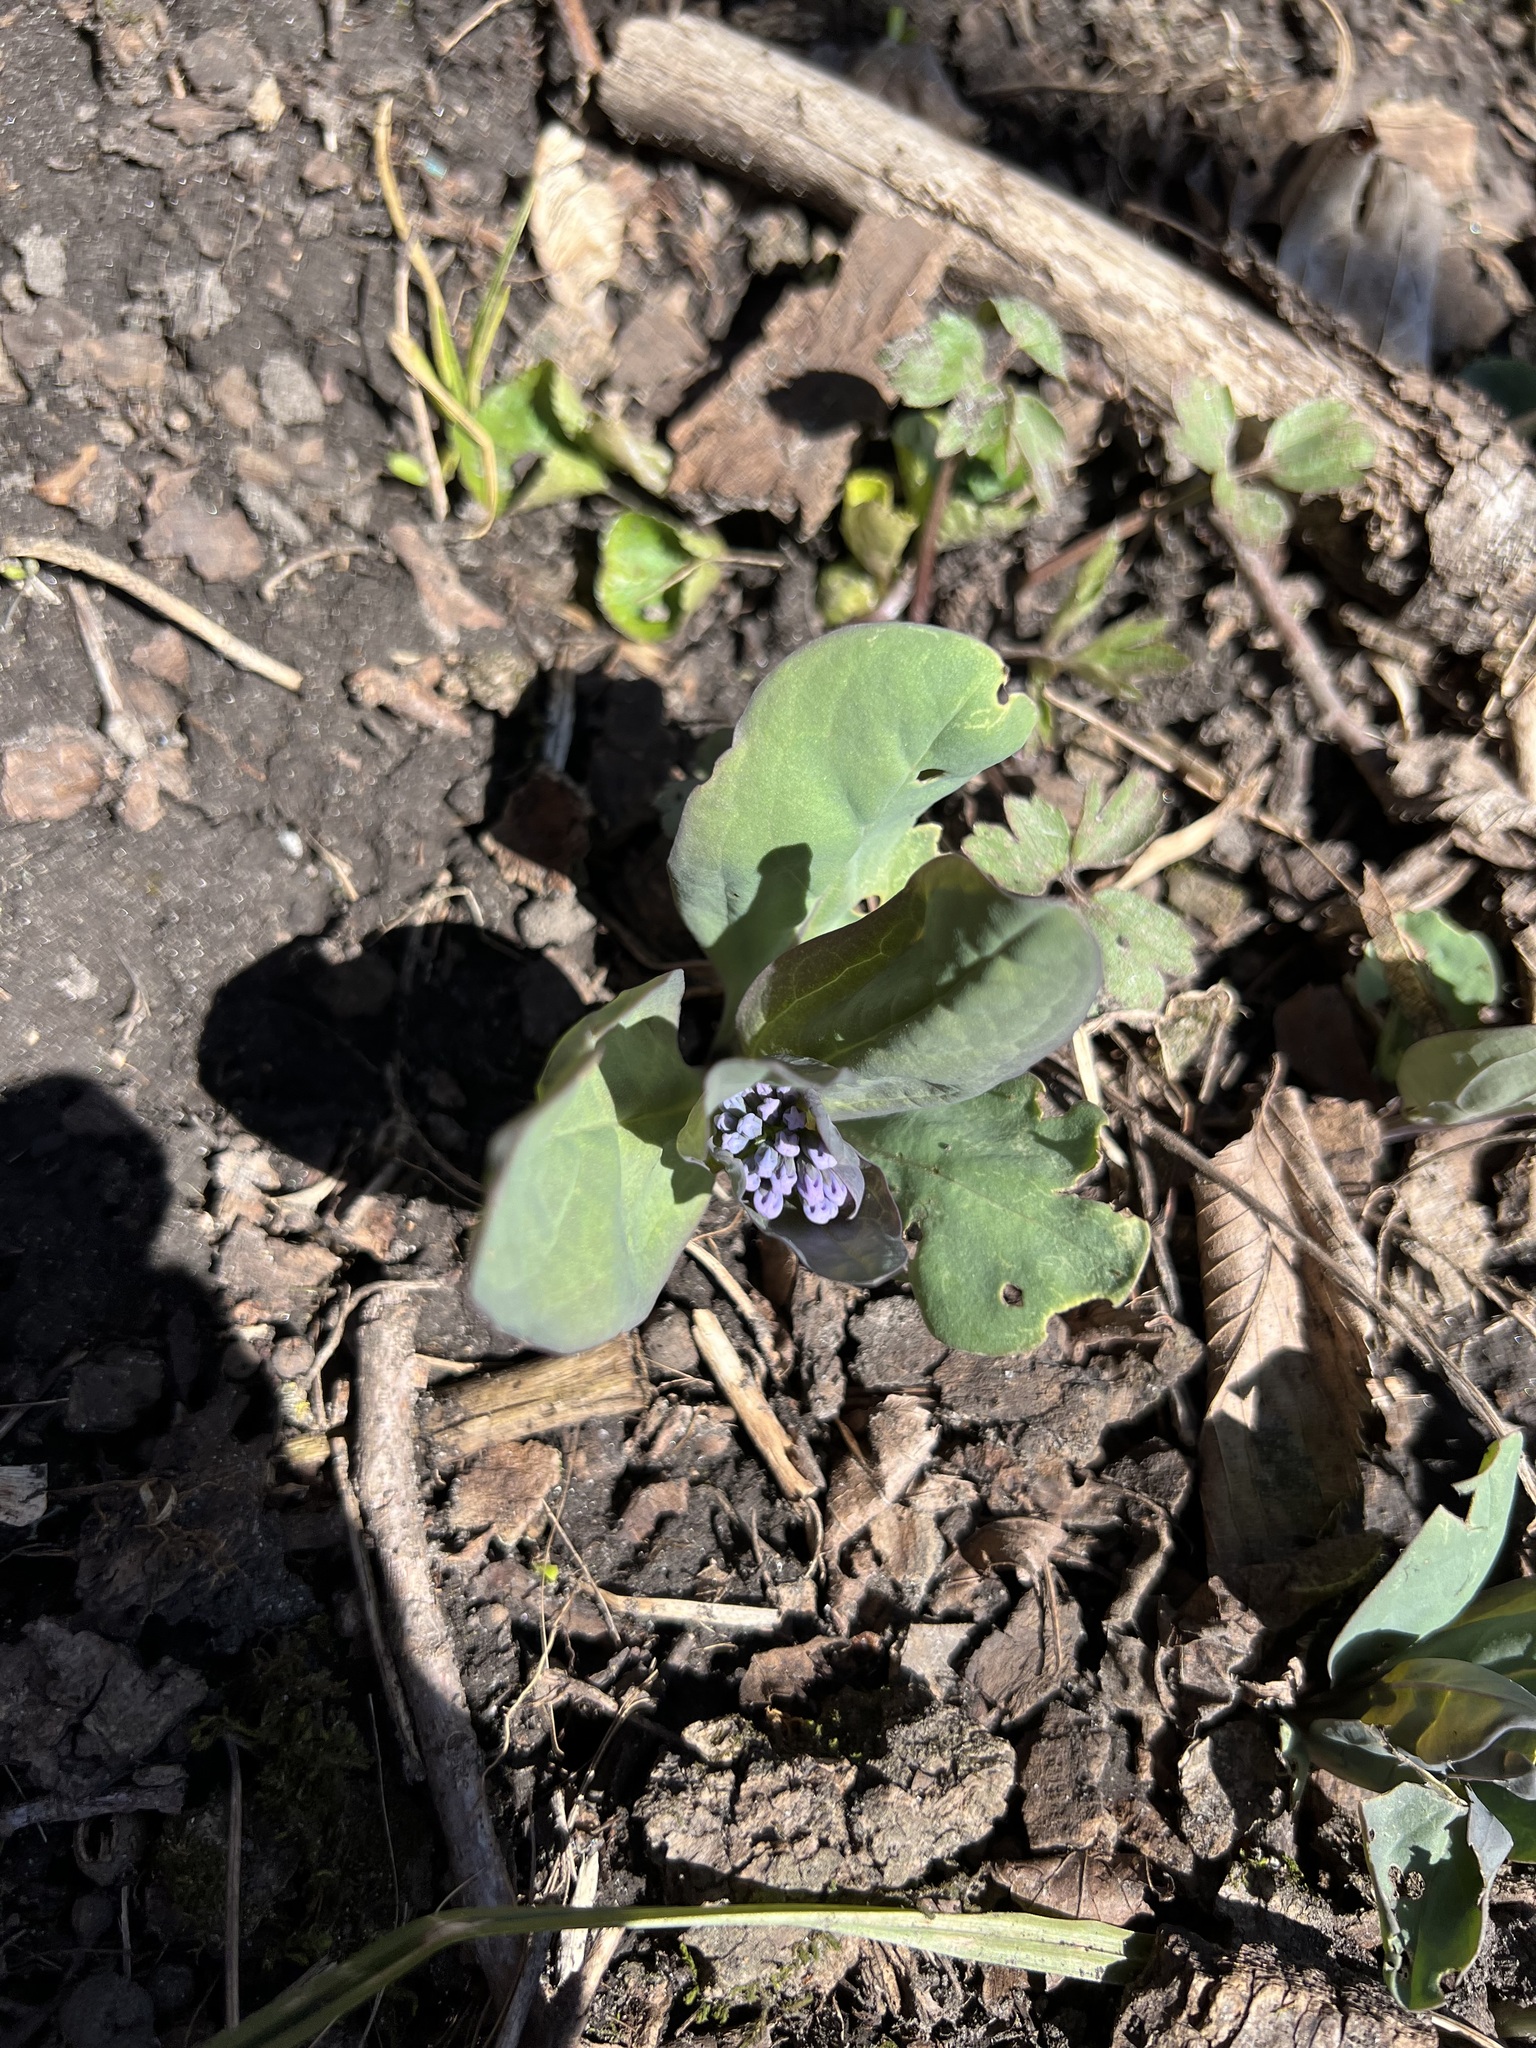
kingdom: Plantae
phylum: Tracheophyta
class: Magnoliopsida
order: Boraginales
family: Boraginaceae
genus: Mertensia
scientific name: Mertensia virginica
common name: Virginia bluebells
